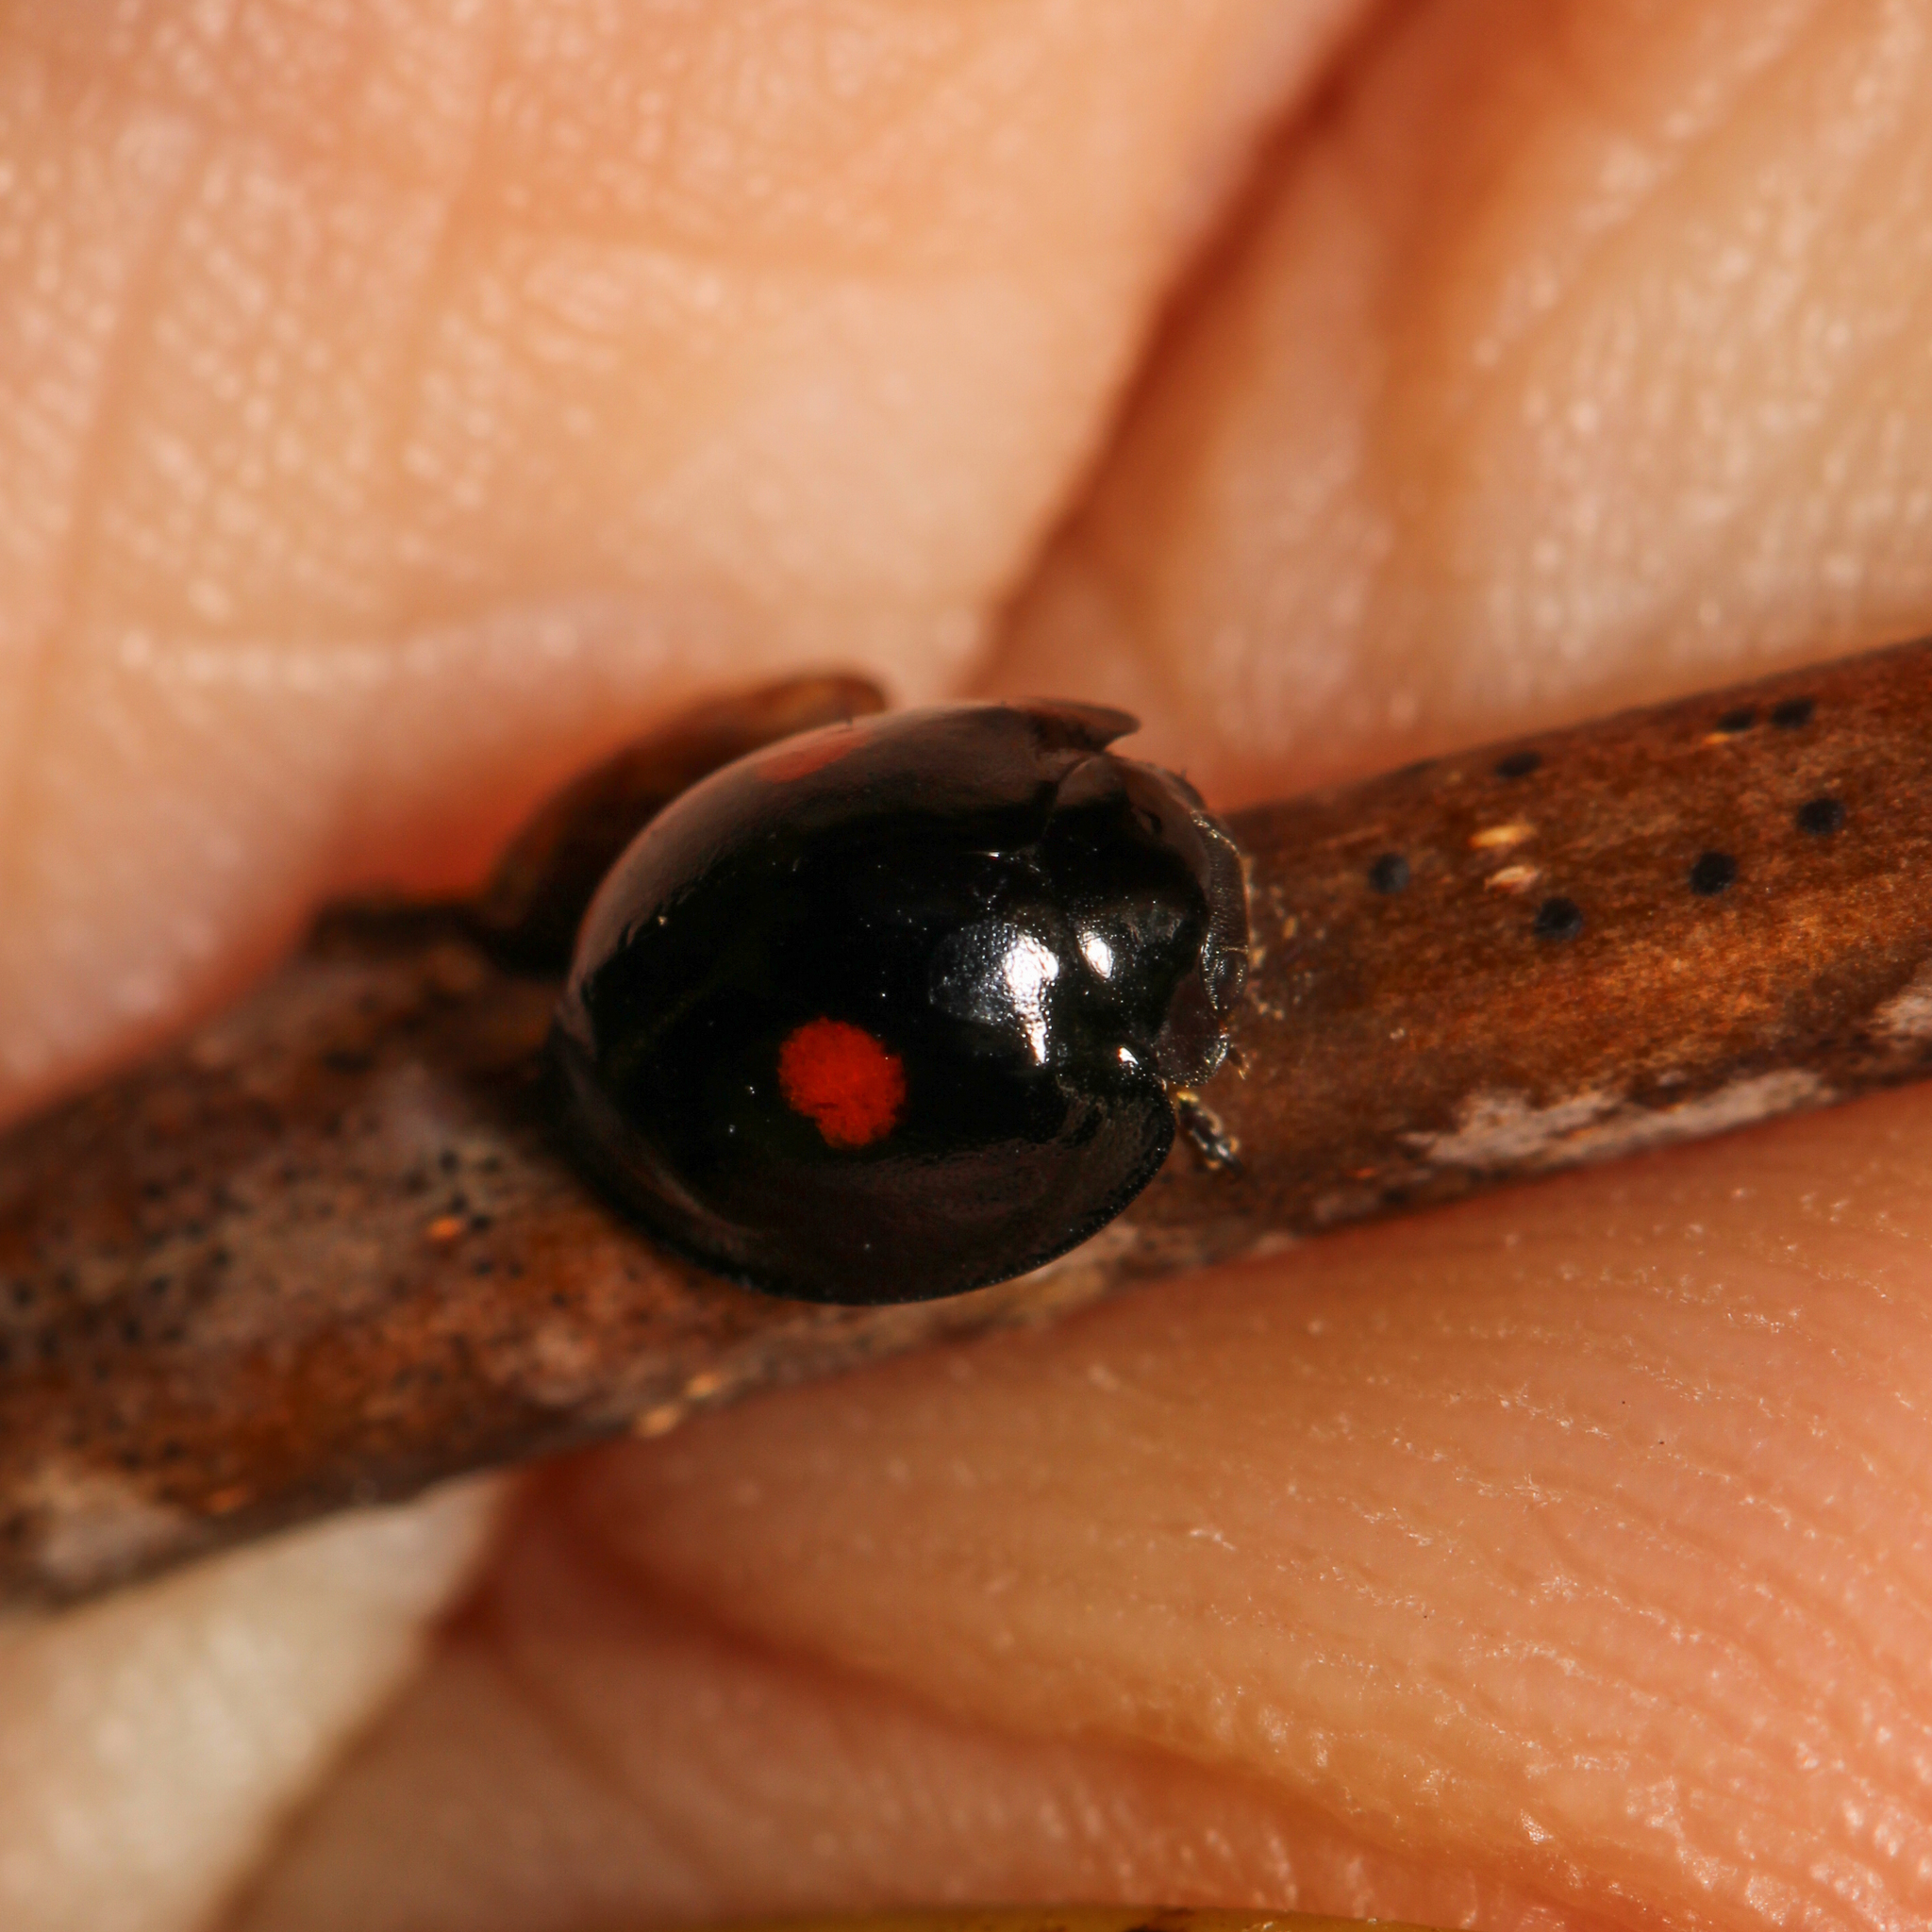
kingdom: Animalia
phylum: Arthropoda
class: Insecta
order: Coleoptera
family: Coccinellidae
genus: Chilocorus
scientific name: Chilocorus stigma
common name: Twicestabbed lady beetle
